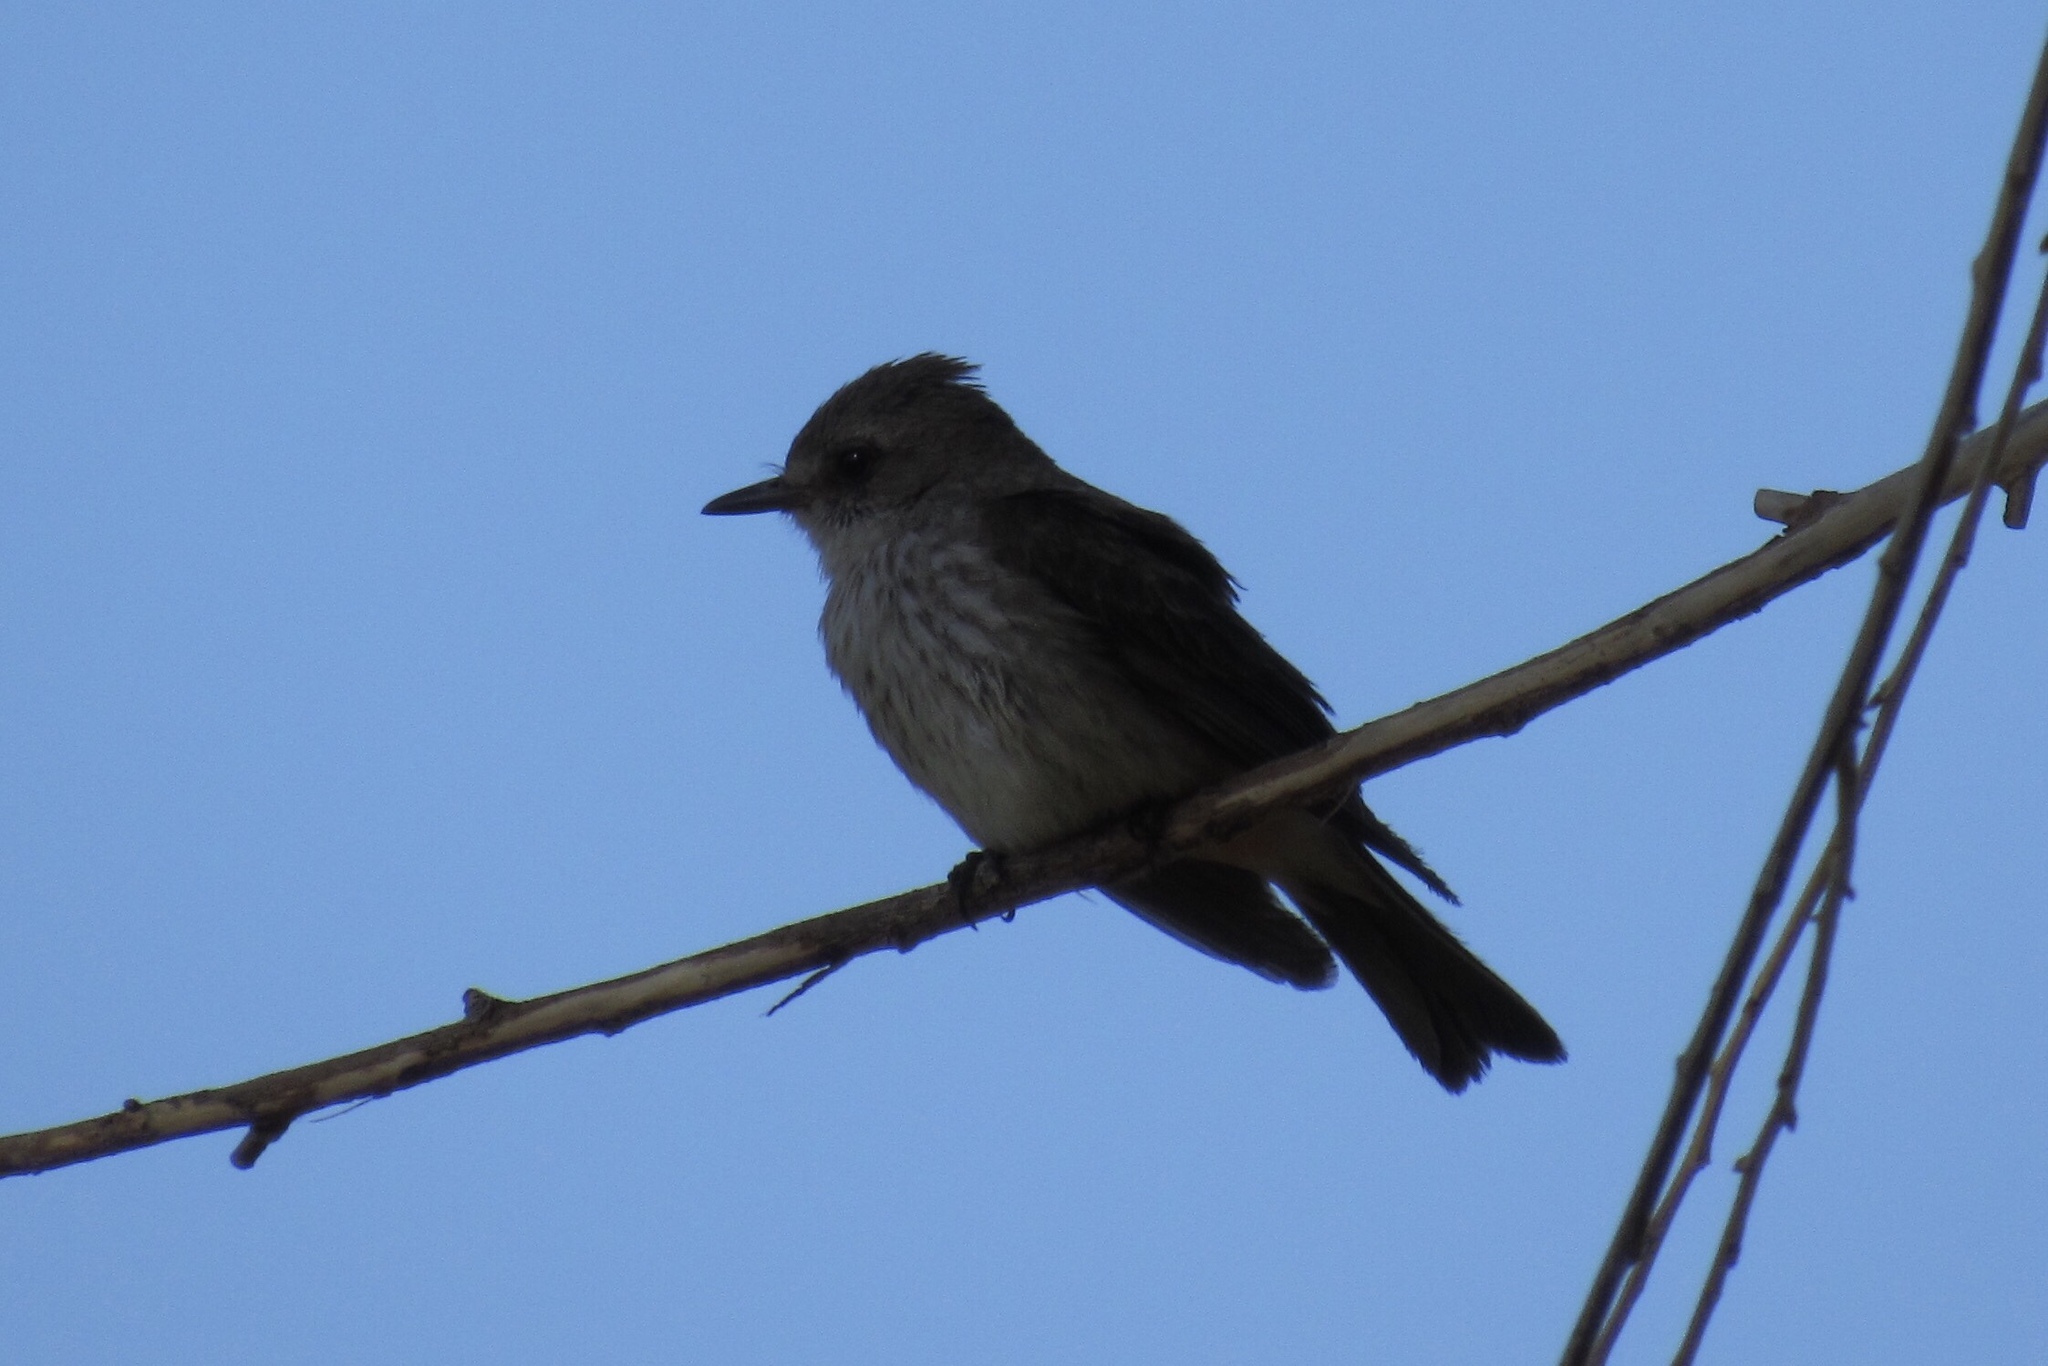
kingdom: Animalia
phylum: Chordata
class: Aves
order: Passeriformes
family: Tyrannidae
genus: Pyrocephalus
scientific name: Pyrocephalus rubinus
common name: Vermilion flycatcher
